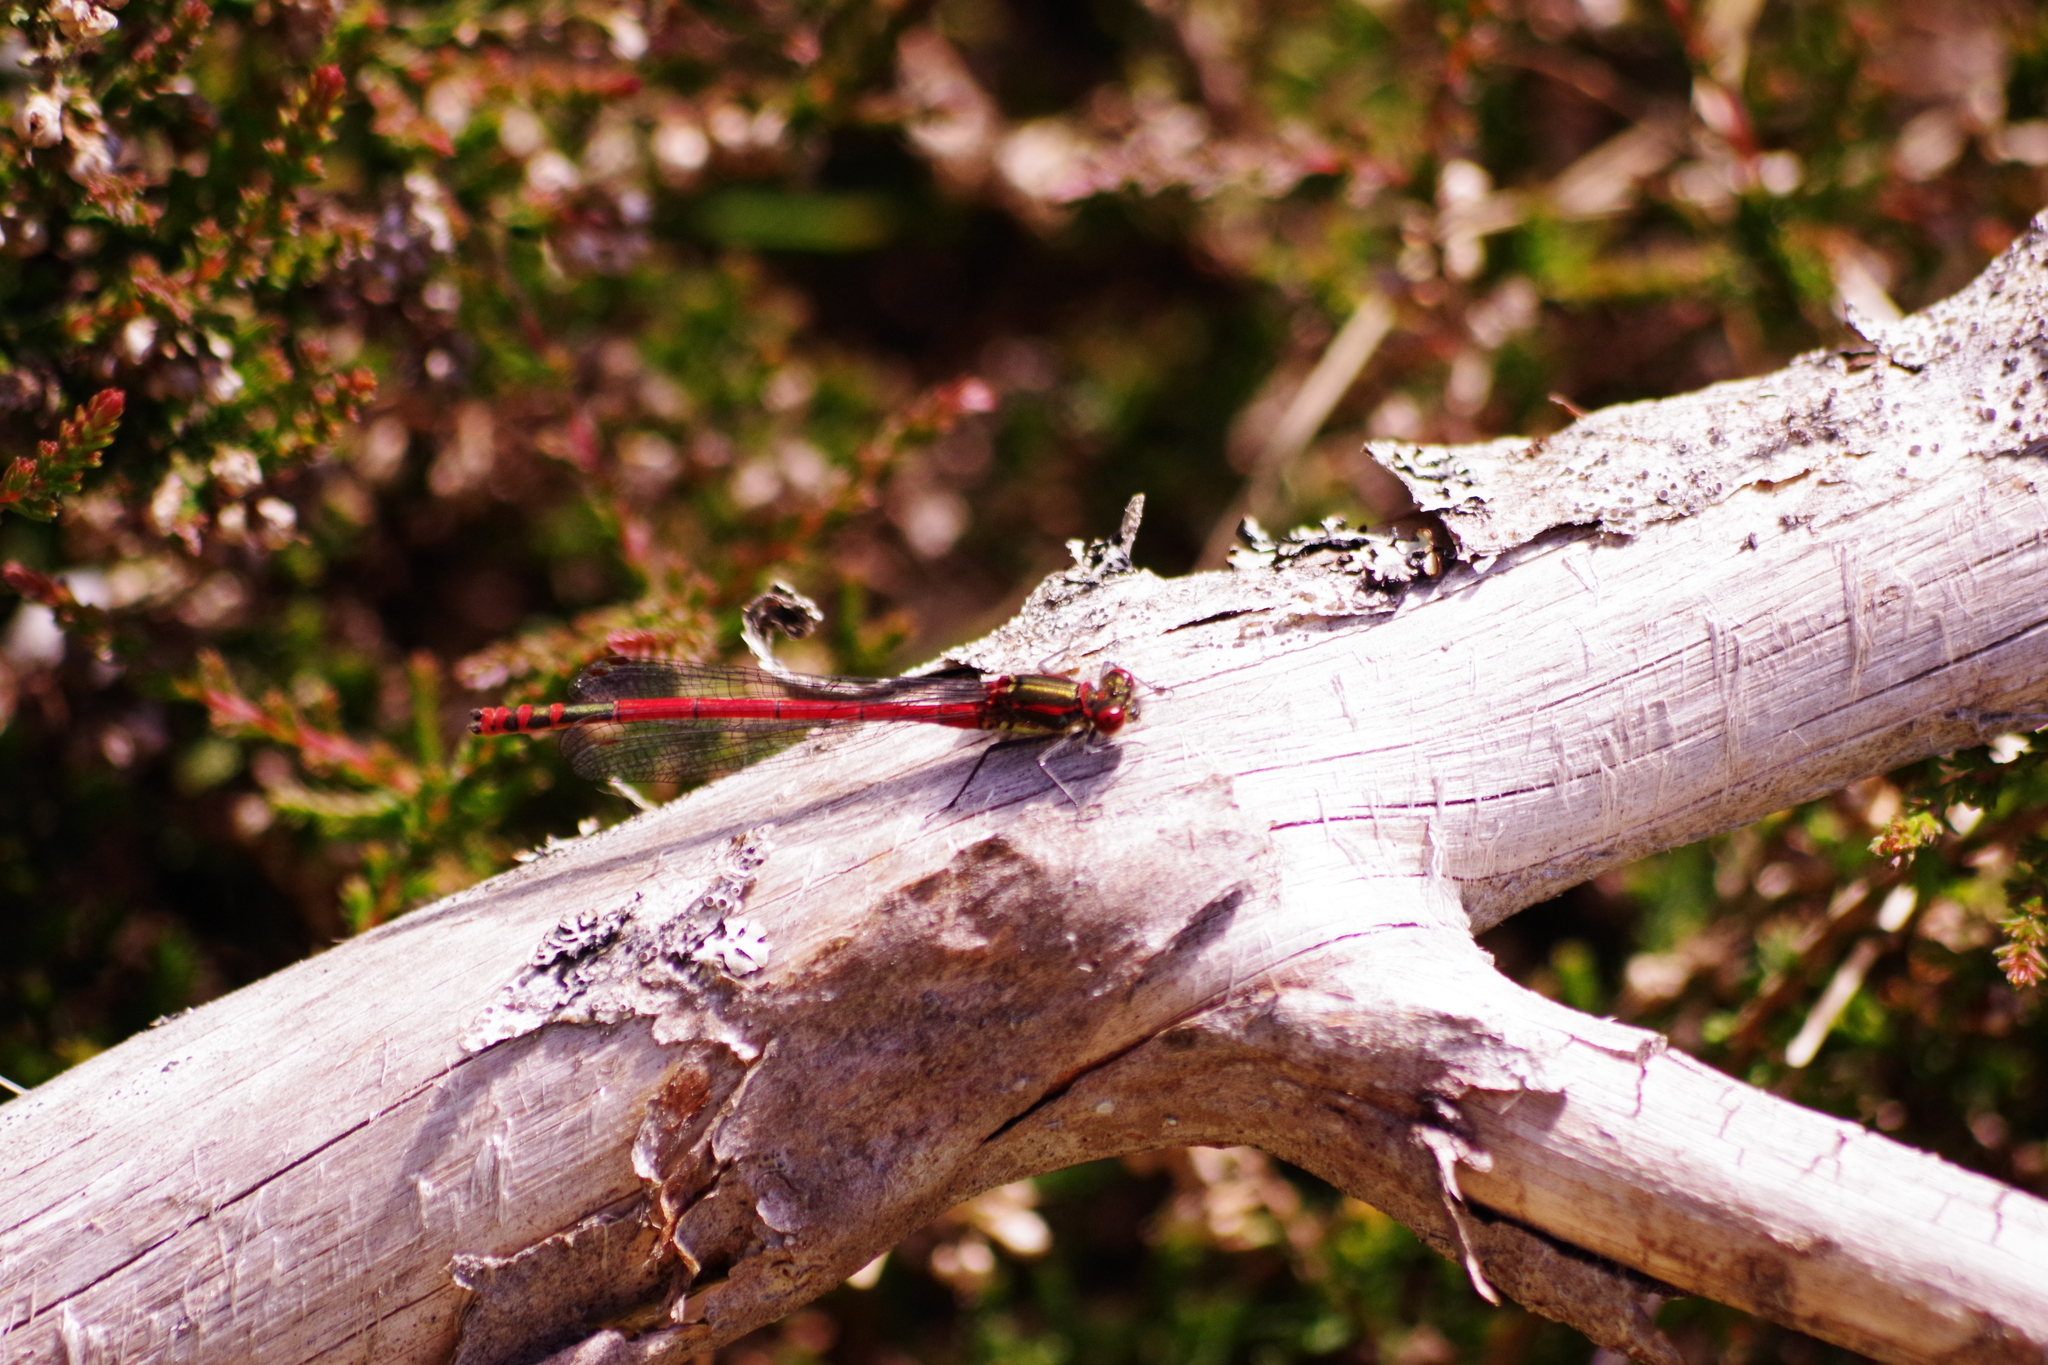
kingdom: Animalia
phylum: Arthropoda
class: Insecta
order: Odonata
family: Coenagrionidae
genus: Pyrrhosoma
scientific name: Pyrrhosoma nymphula
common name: Large red damsel
